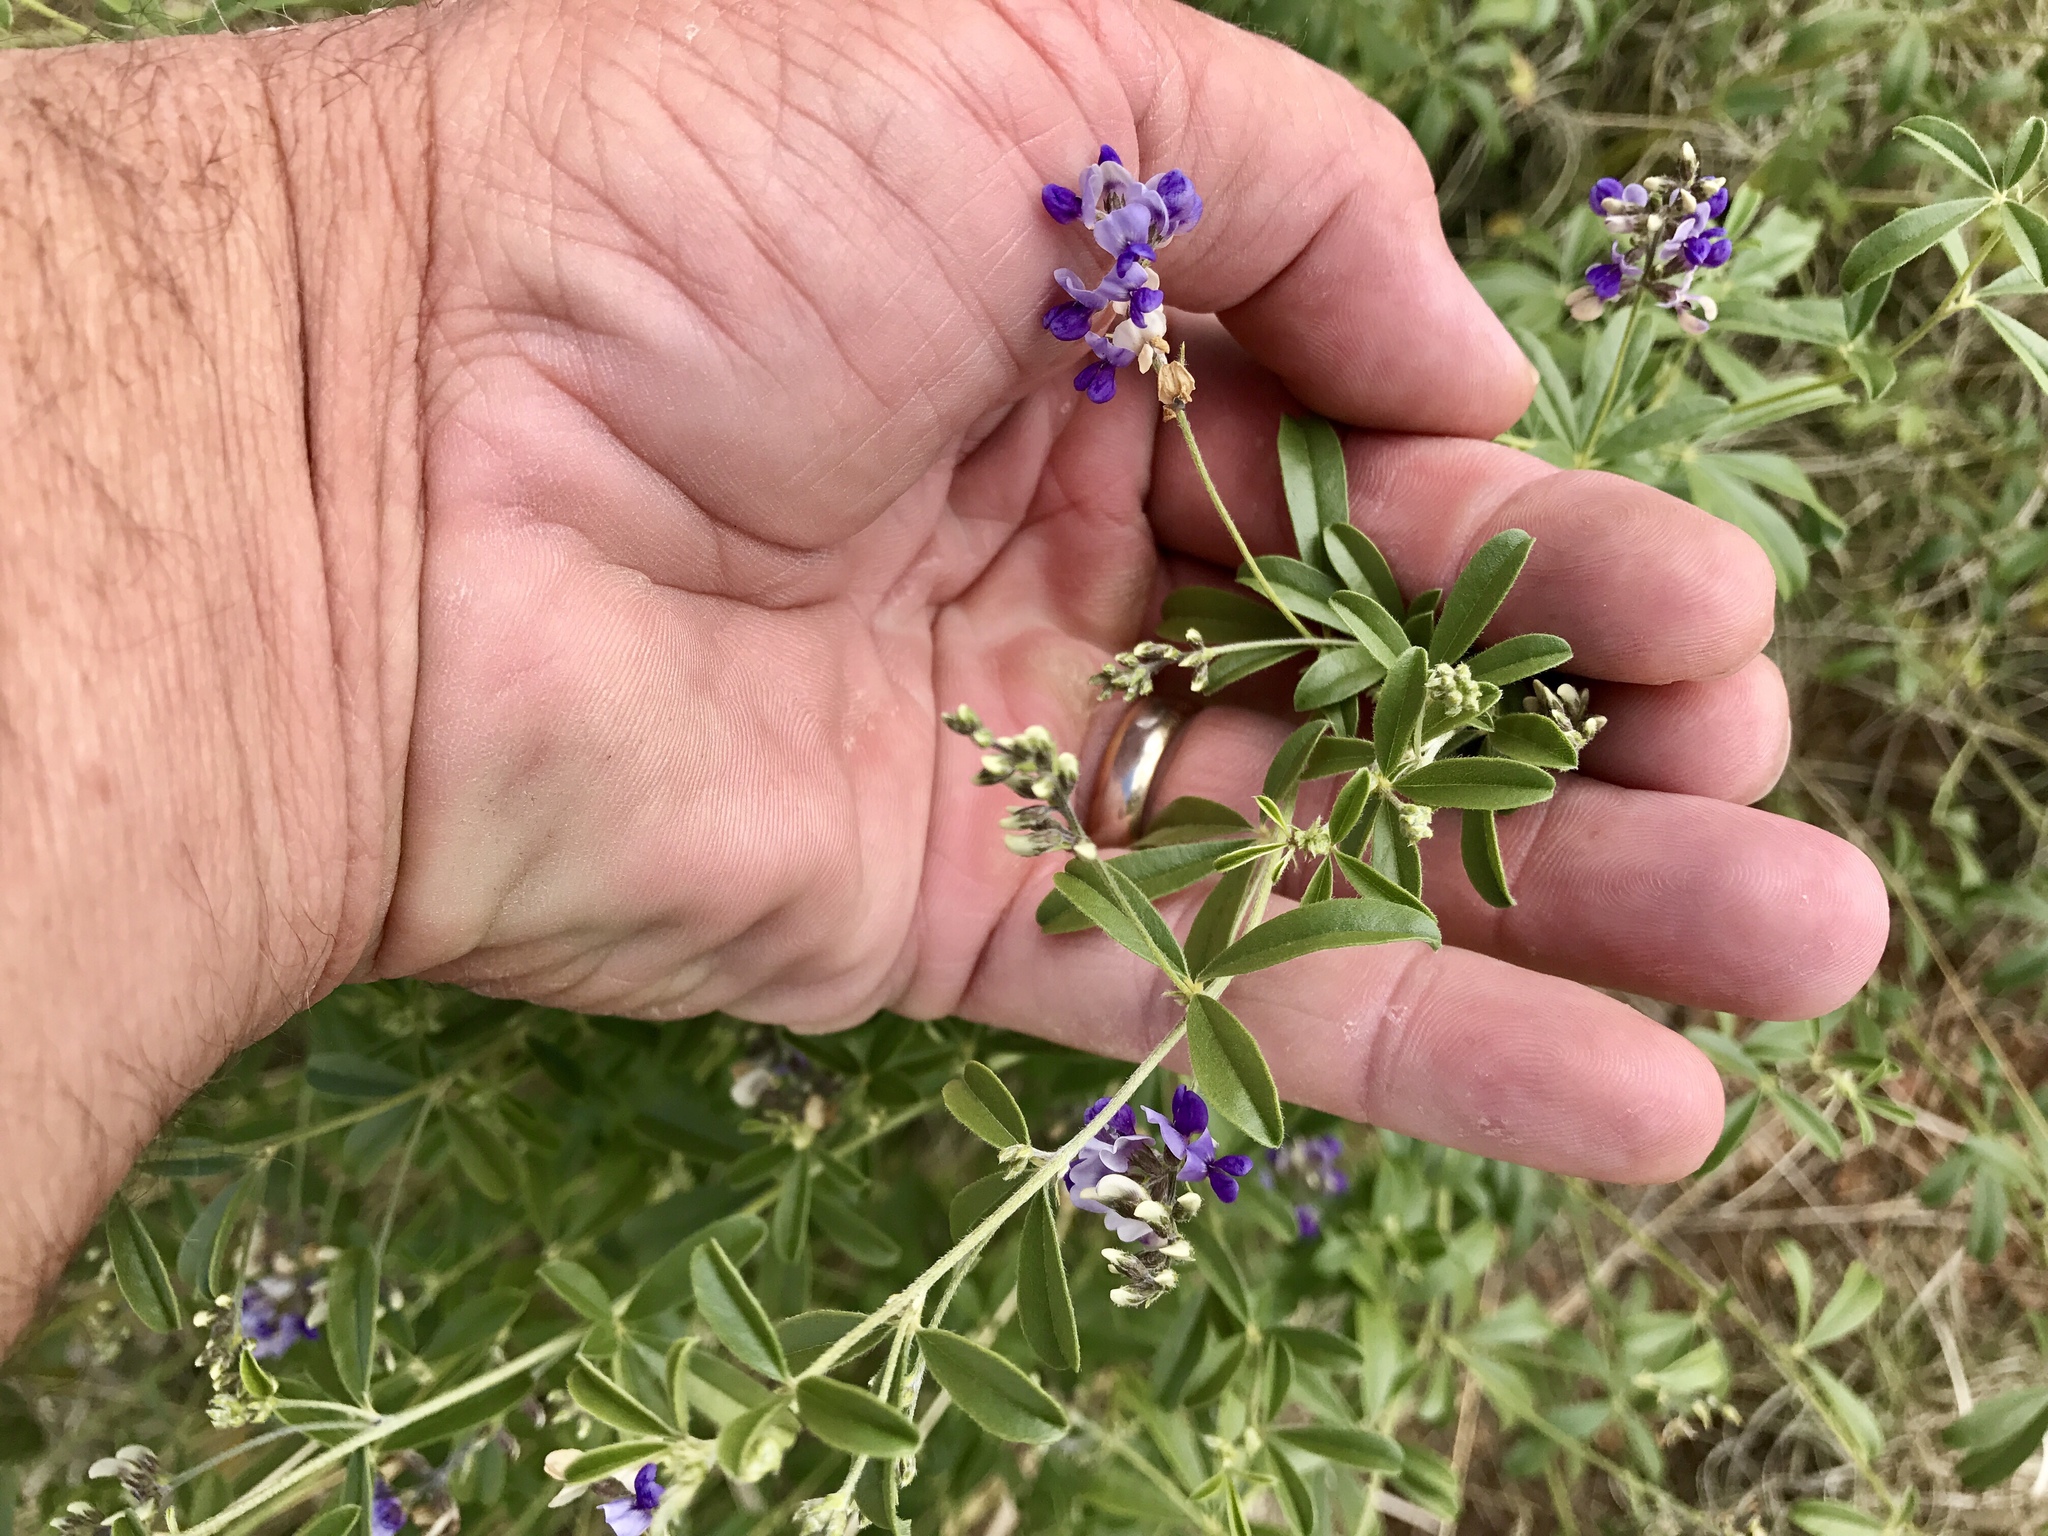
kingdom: Plantae
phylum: Tracheophyta
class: Magnoliopsida
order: Fabales
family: Fabaceae
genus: Pediomelum
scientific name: Pediomelum tenuiflorum
